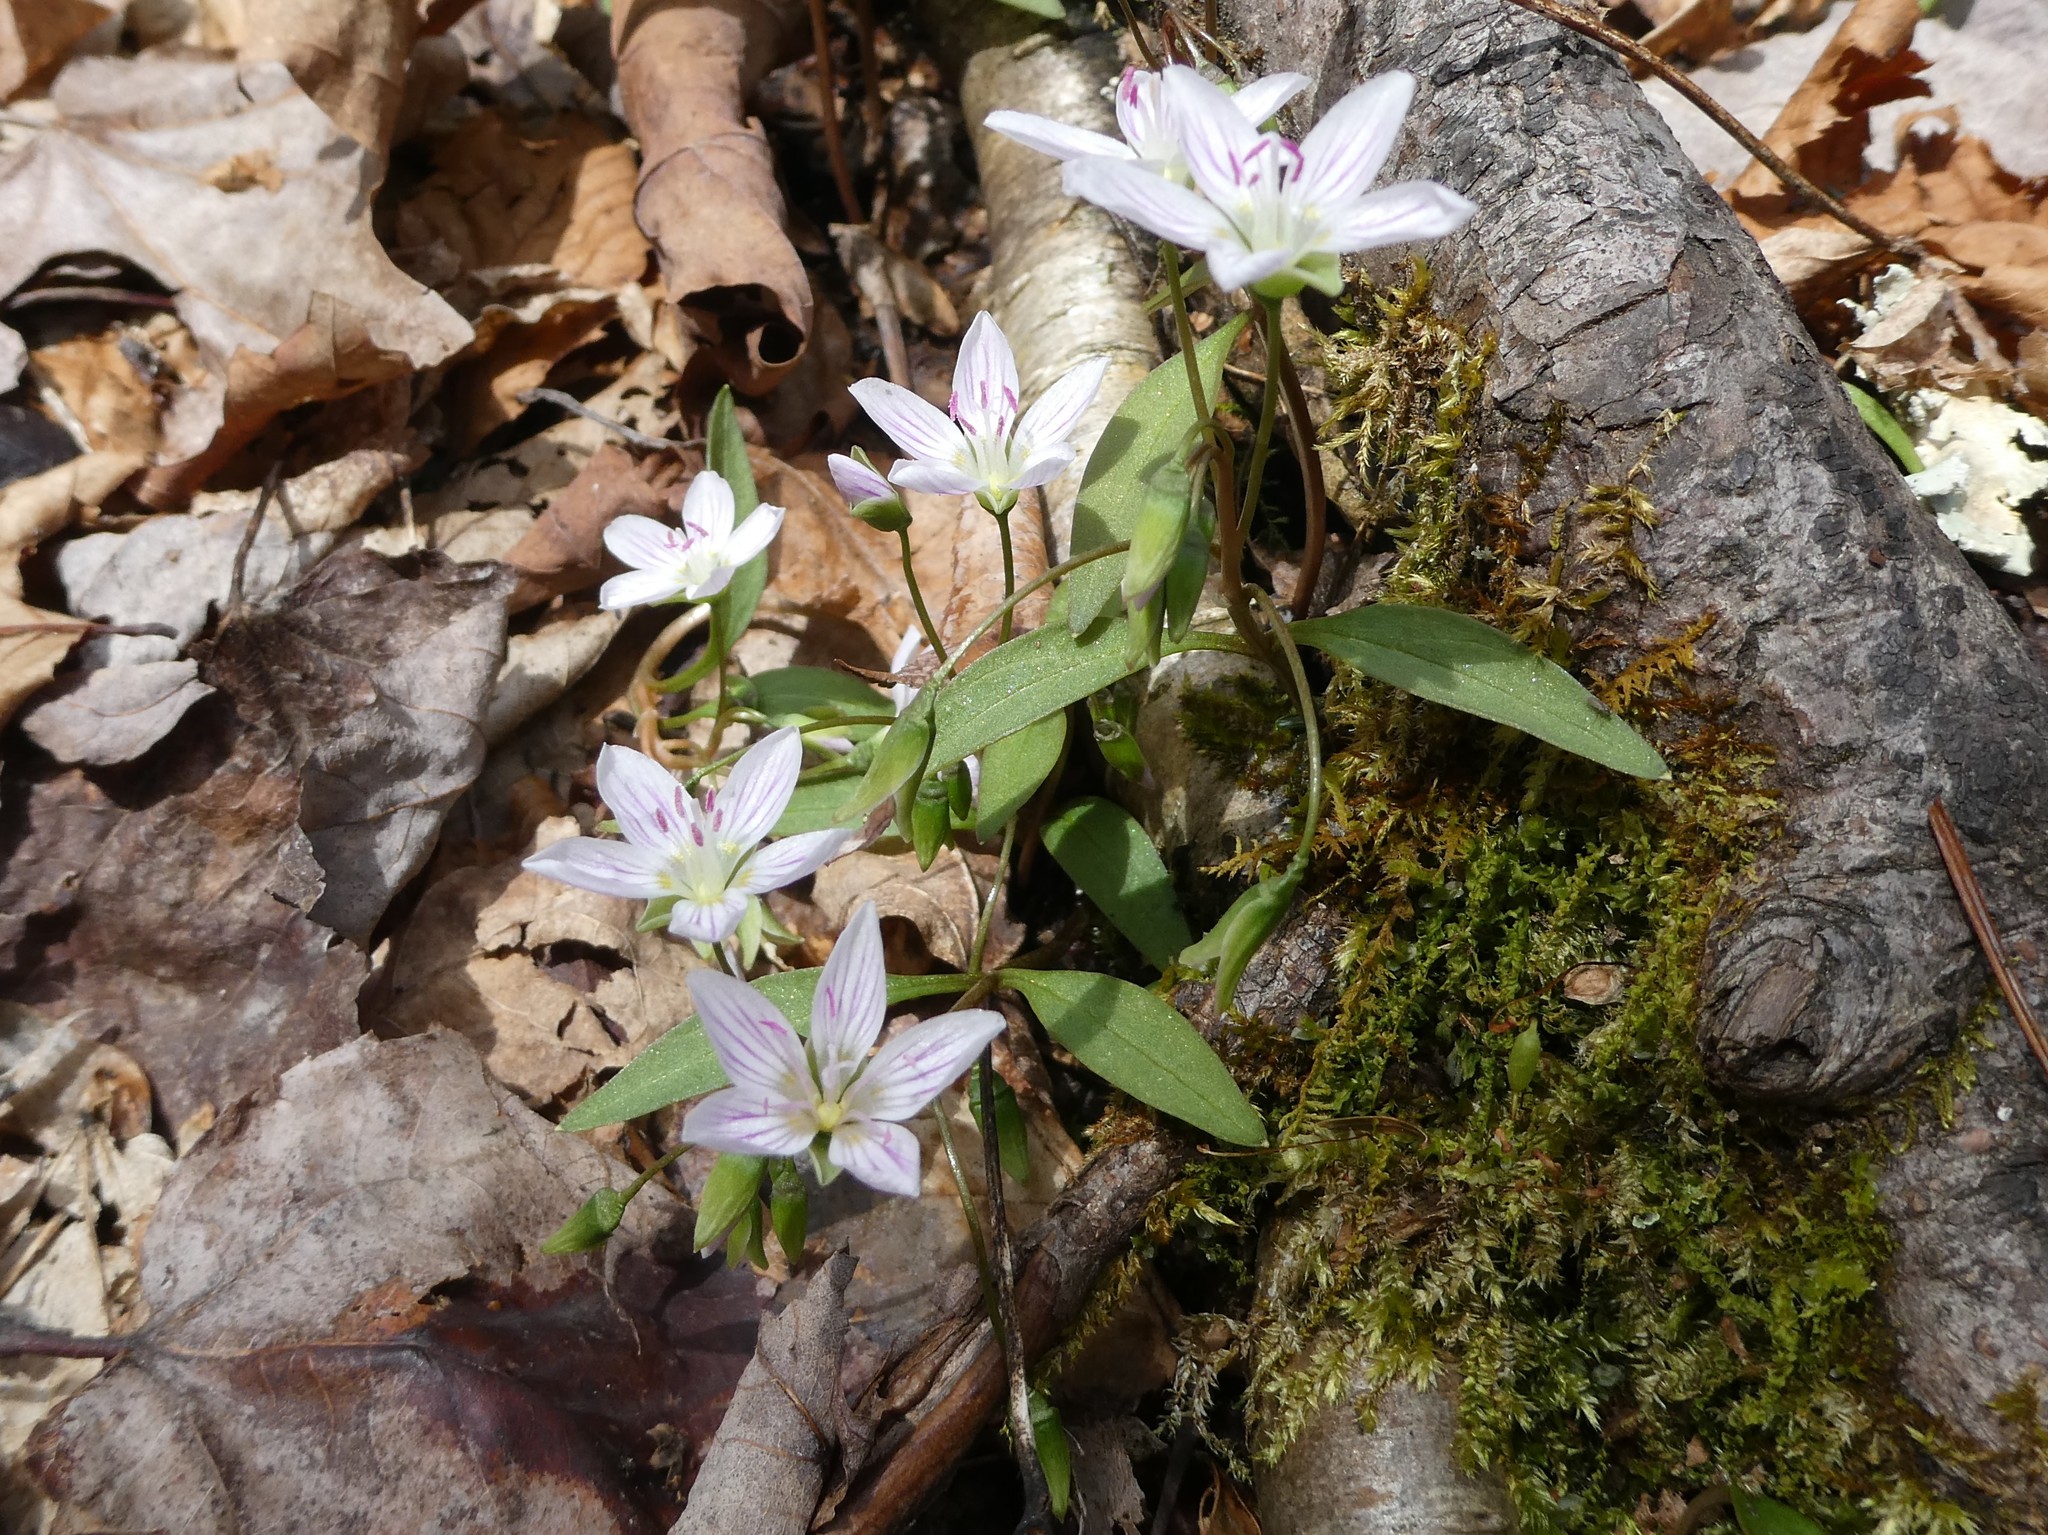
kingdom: Plantae
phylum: Tracheophyta
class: Magnoliopsida
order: Caryophyllales
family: Montiaceae
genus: Claytonia
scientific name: Claytonia caroliniana
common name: Carolina spring beauty
